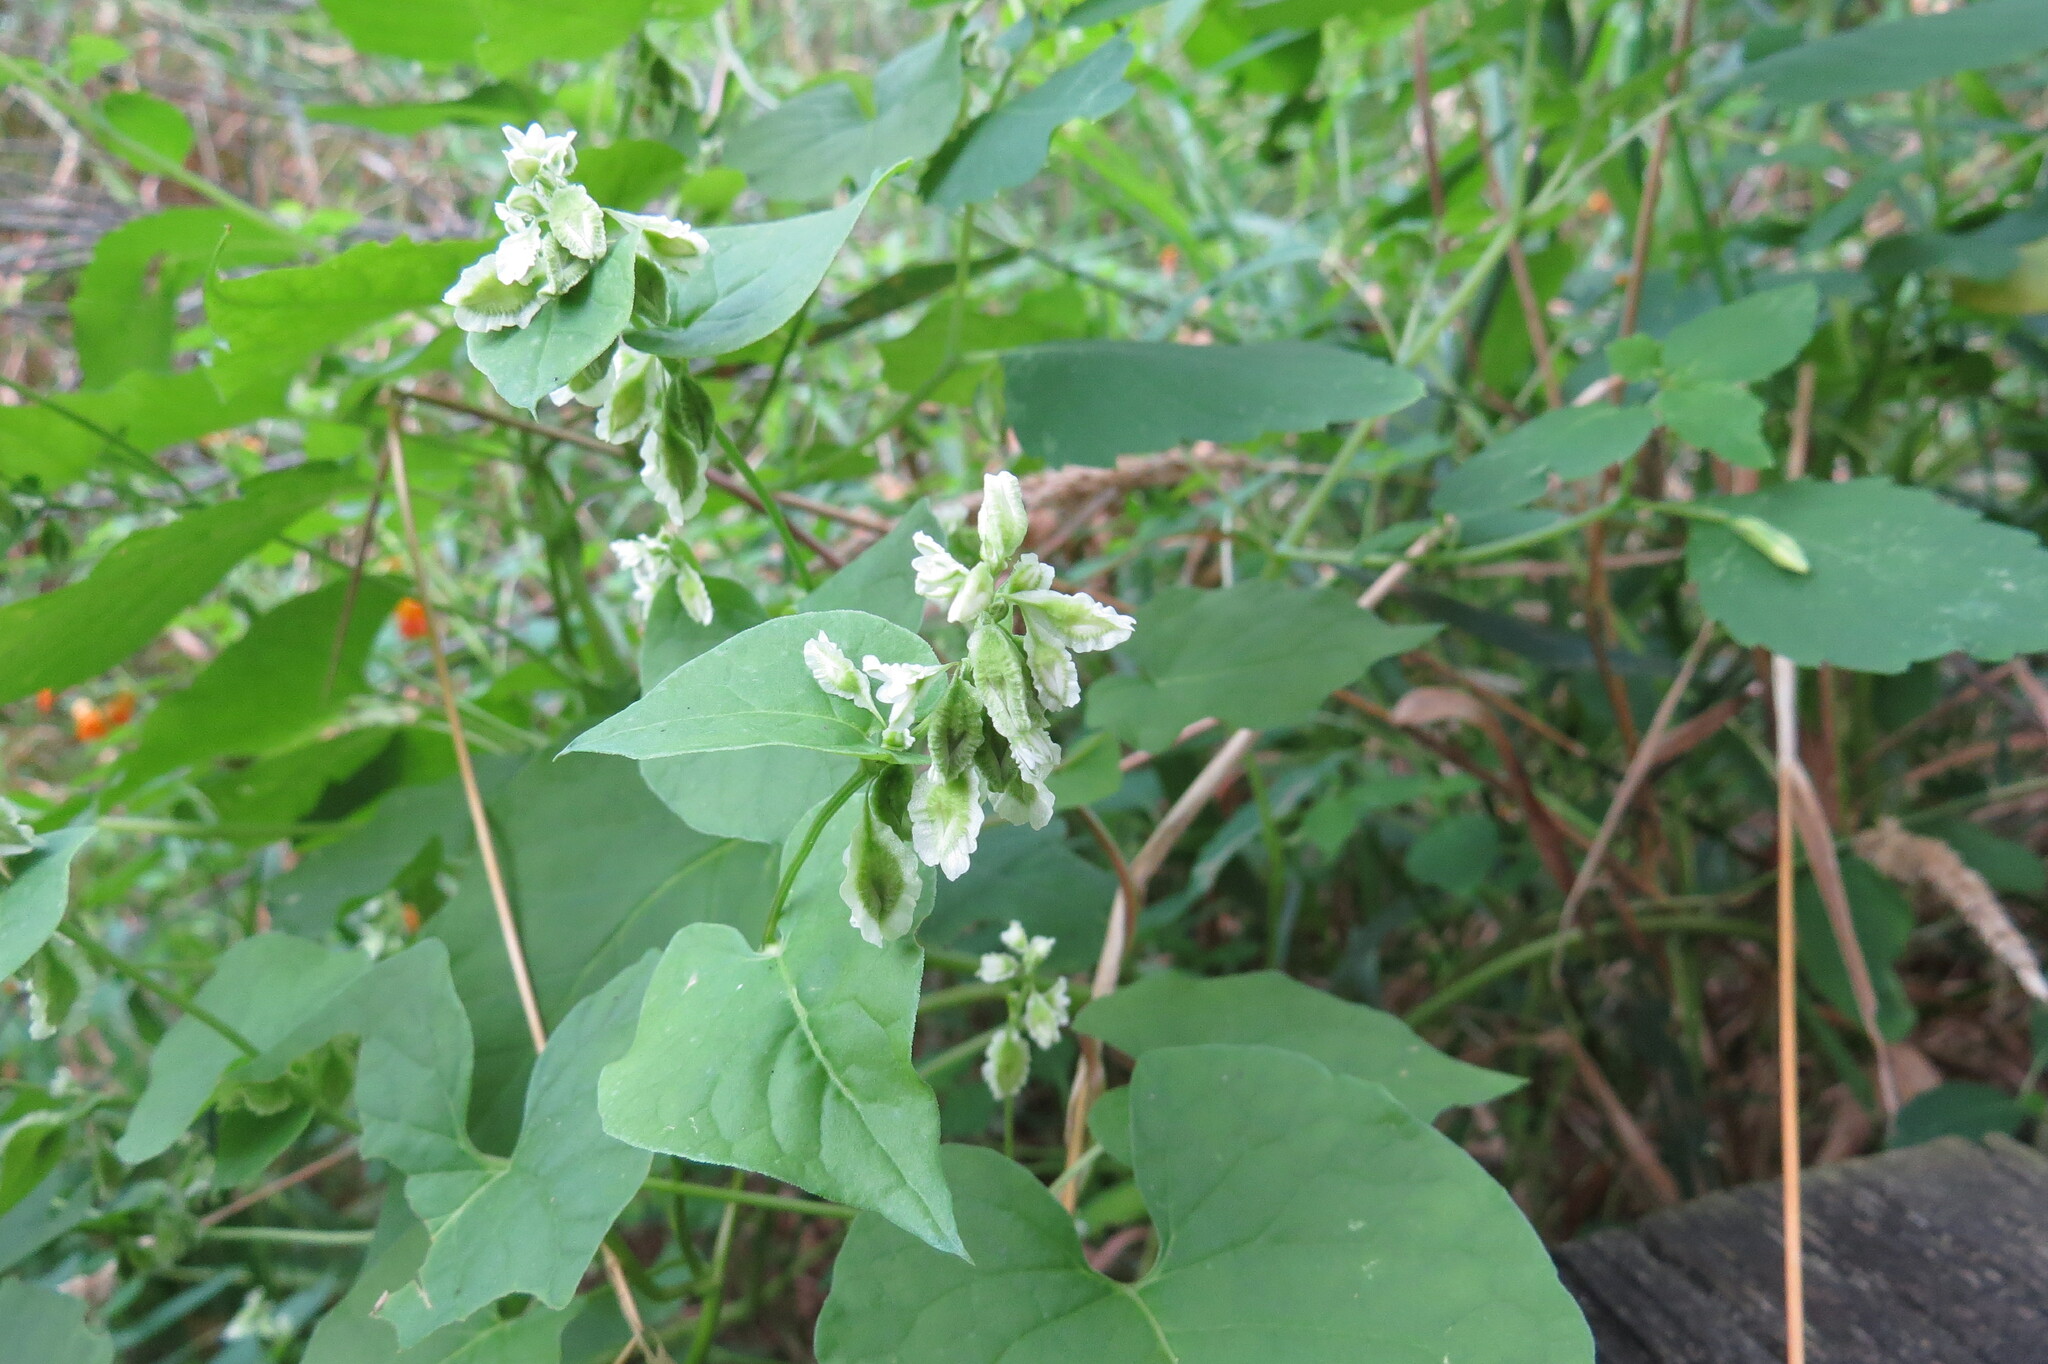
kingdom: Plantae
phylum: Tracheophyta
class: Magnoliopsida
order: Caryophyllales
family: Polygonaceae
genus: Fallopia
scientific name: Fallopia scandens
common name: Climbing false buckwheat
